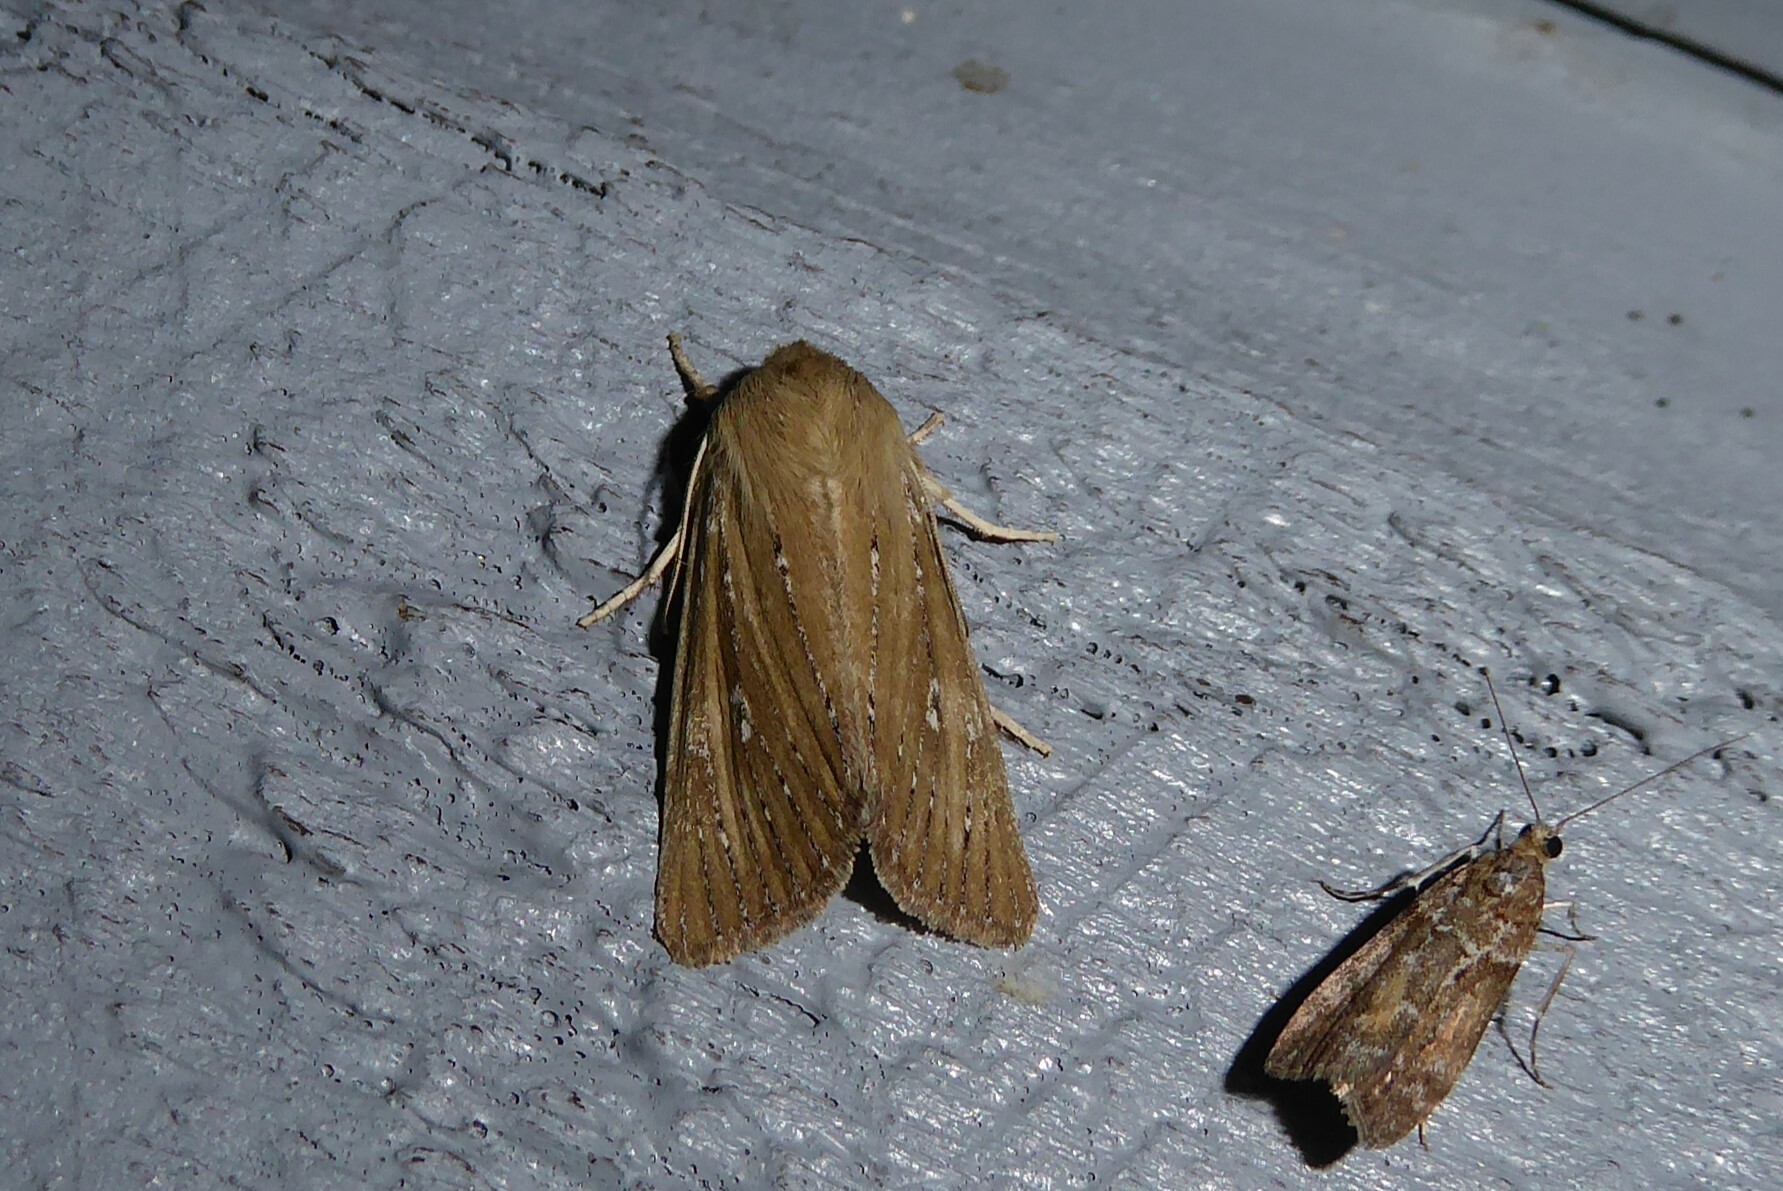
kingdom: Animalia
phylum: Arthropoda
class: Insecta
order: Lepidoptera
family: Noctuidae
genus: Ichneutica
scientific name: Ichneutica
